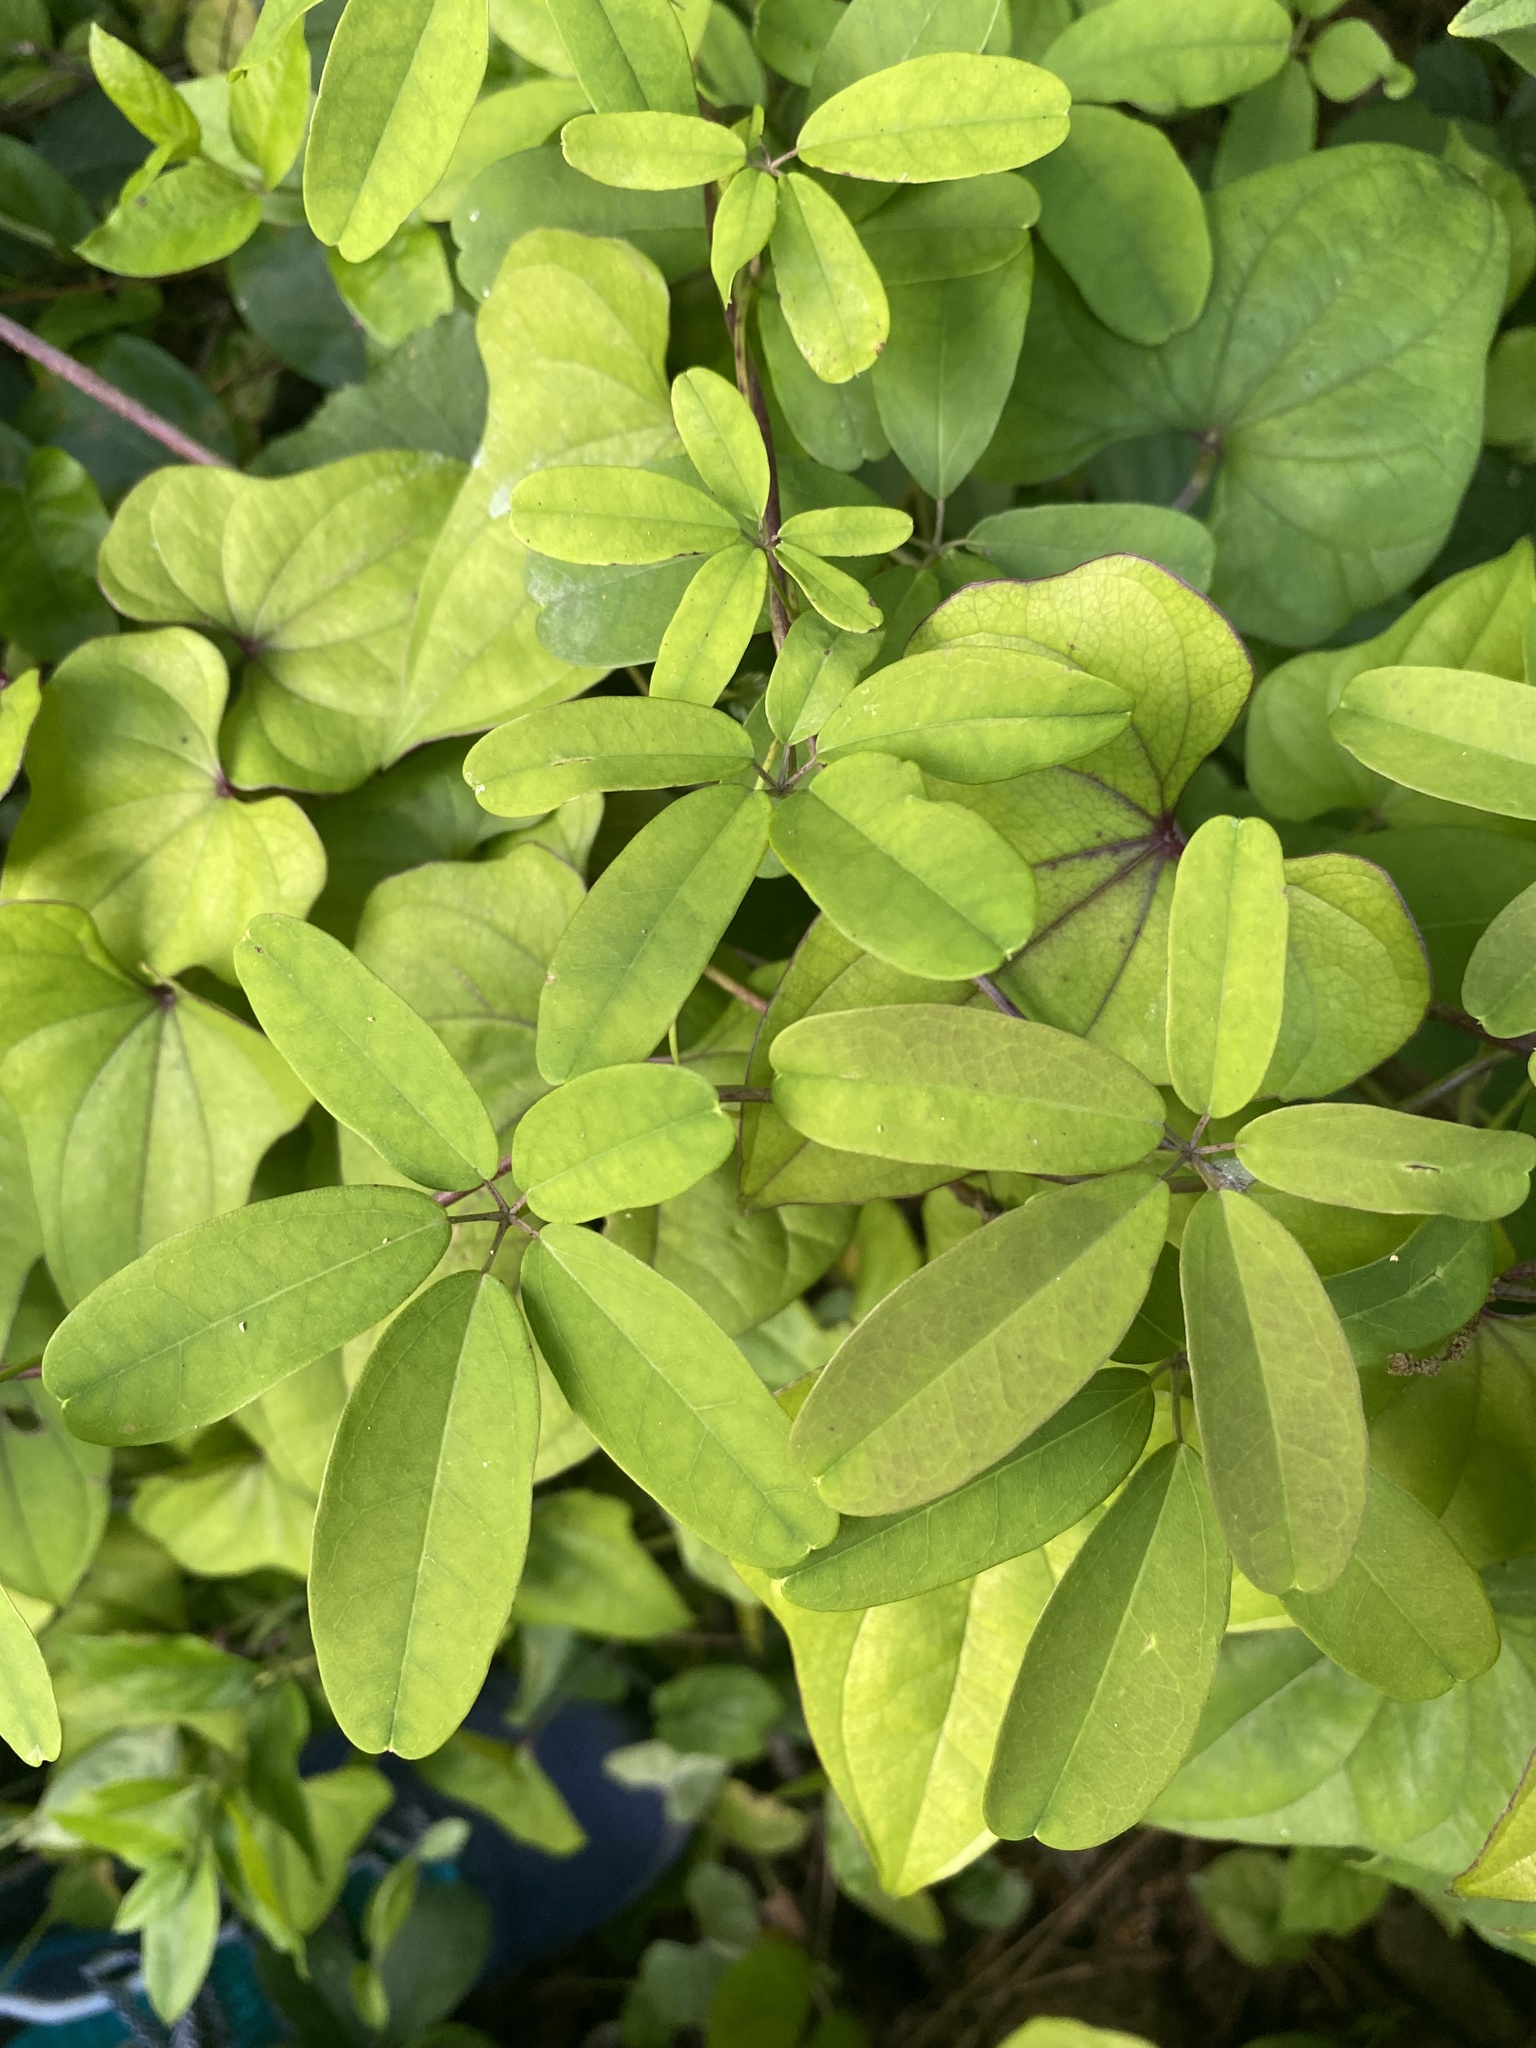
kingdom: Plantae
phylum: Tracheophyta
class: Magnoliopsida
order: Ranunculales
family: Lardizabalaceae
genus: Akebia
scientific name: Akebia quinata
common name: Five-leaf akebia
